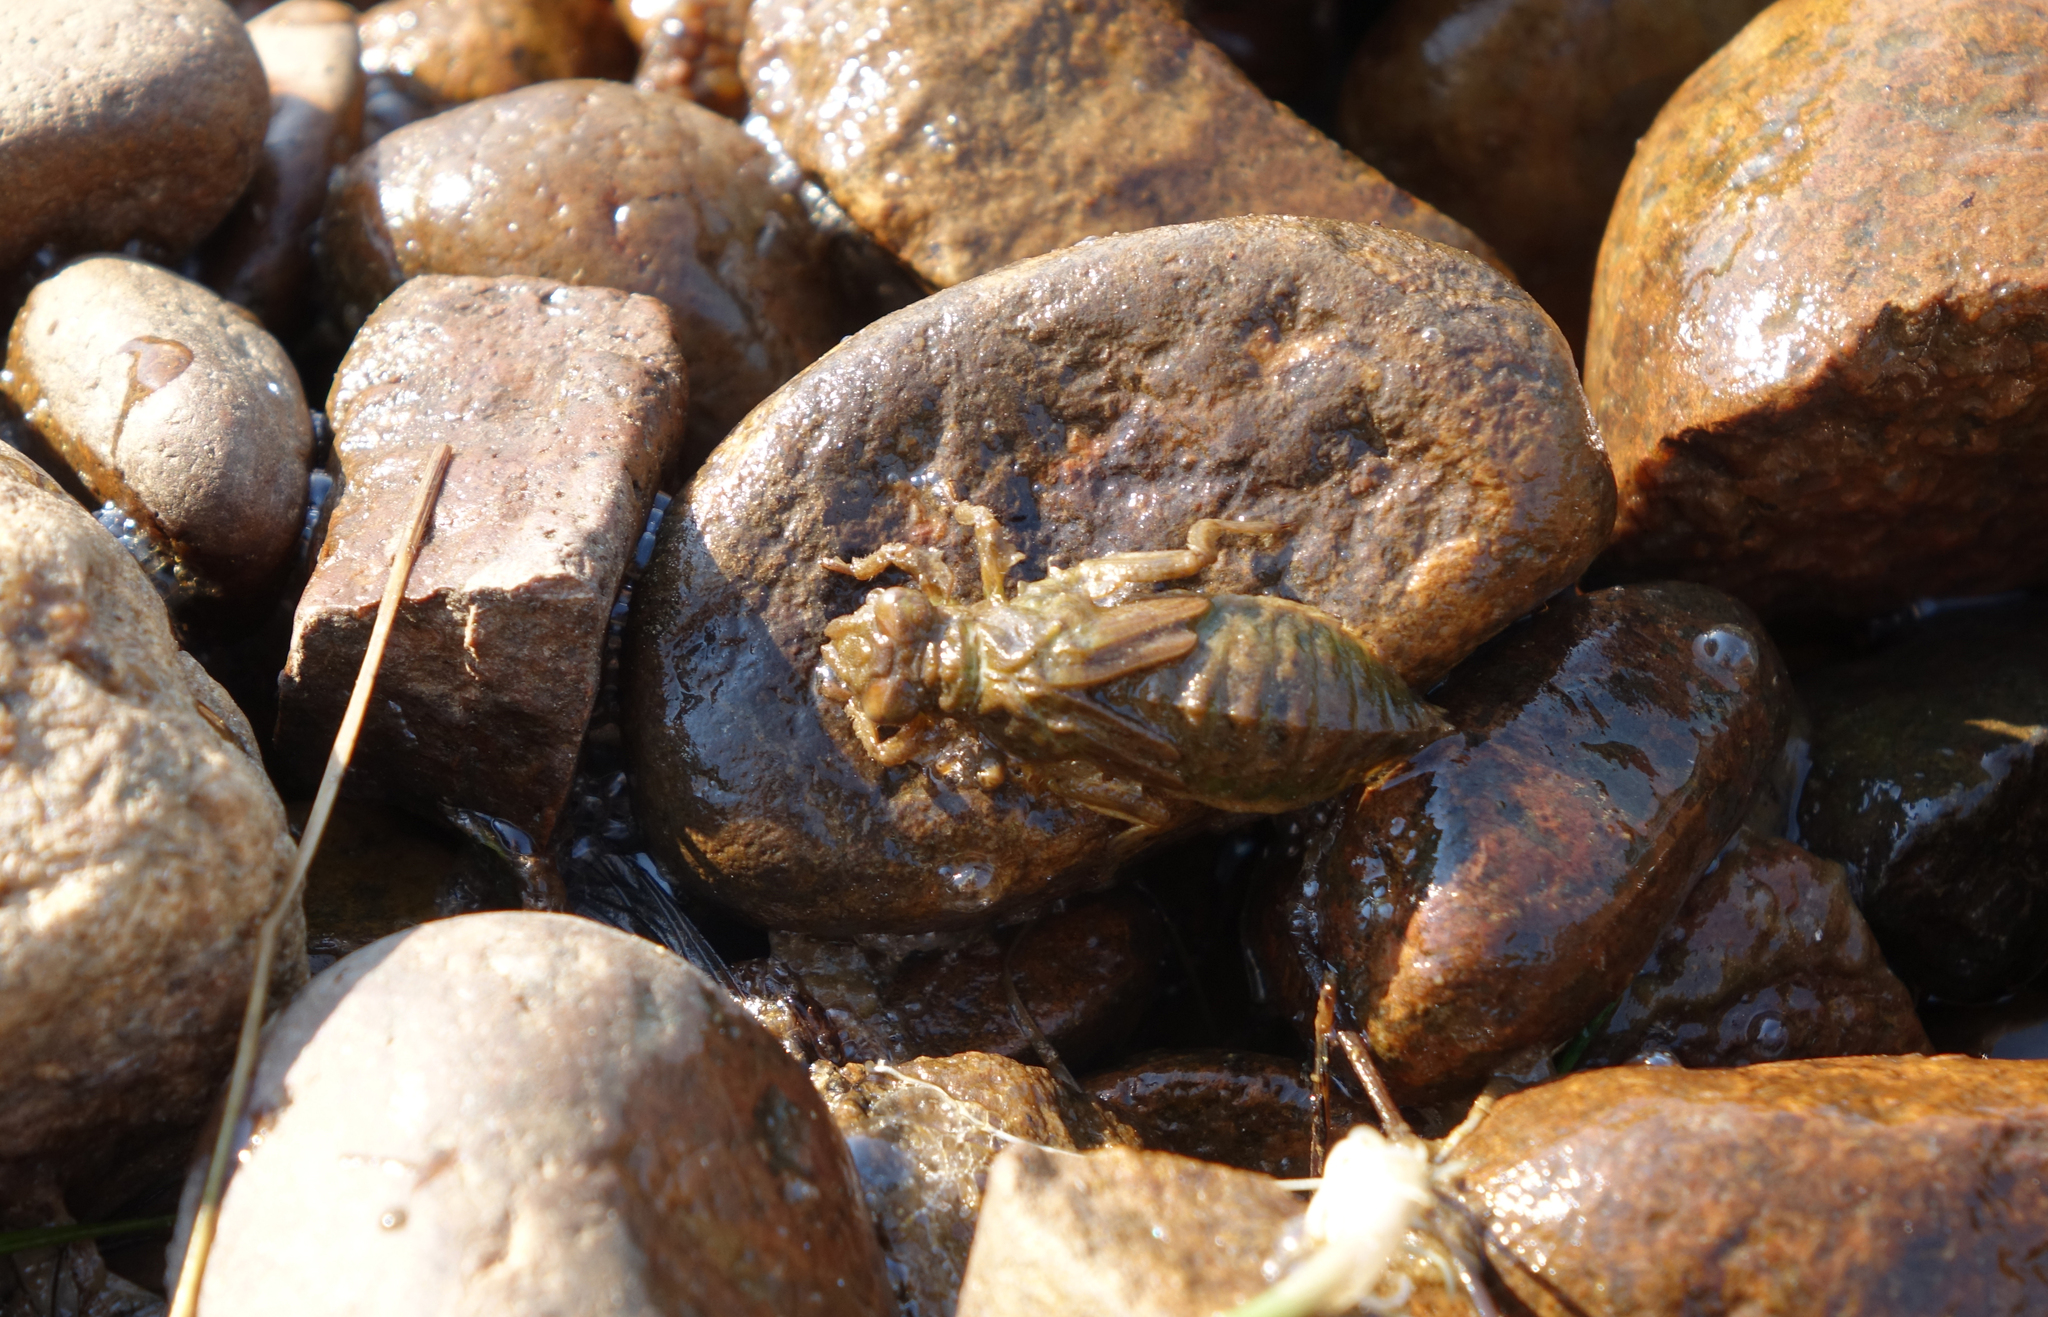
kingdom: Animalia
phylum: Arthropoda
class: Insecta
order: Odonata
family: Gomphidae
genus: Ophiogomphus
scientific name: Ophiogomphus obscurus
